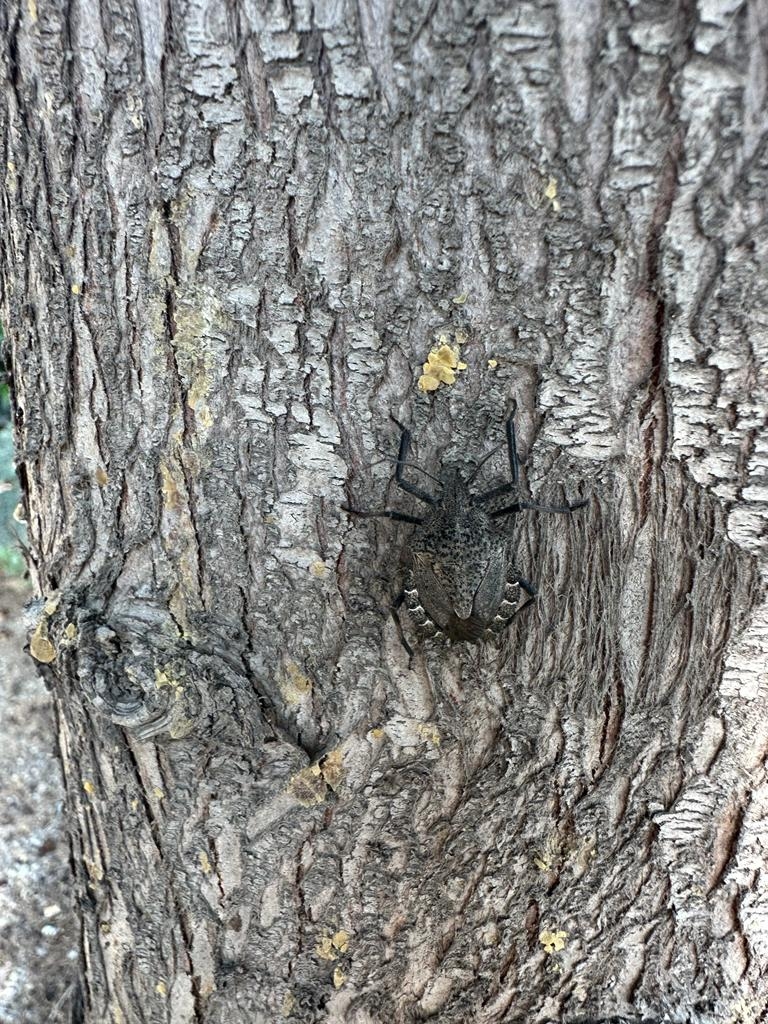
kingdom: Animalia
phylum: Arthropoda
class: Insecta
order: Hemiptera
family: Pentatomidae
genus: Mustha
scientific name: Mustha spinosula
